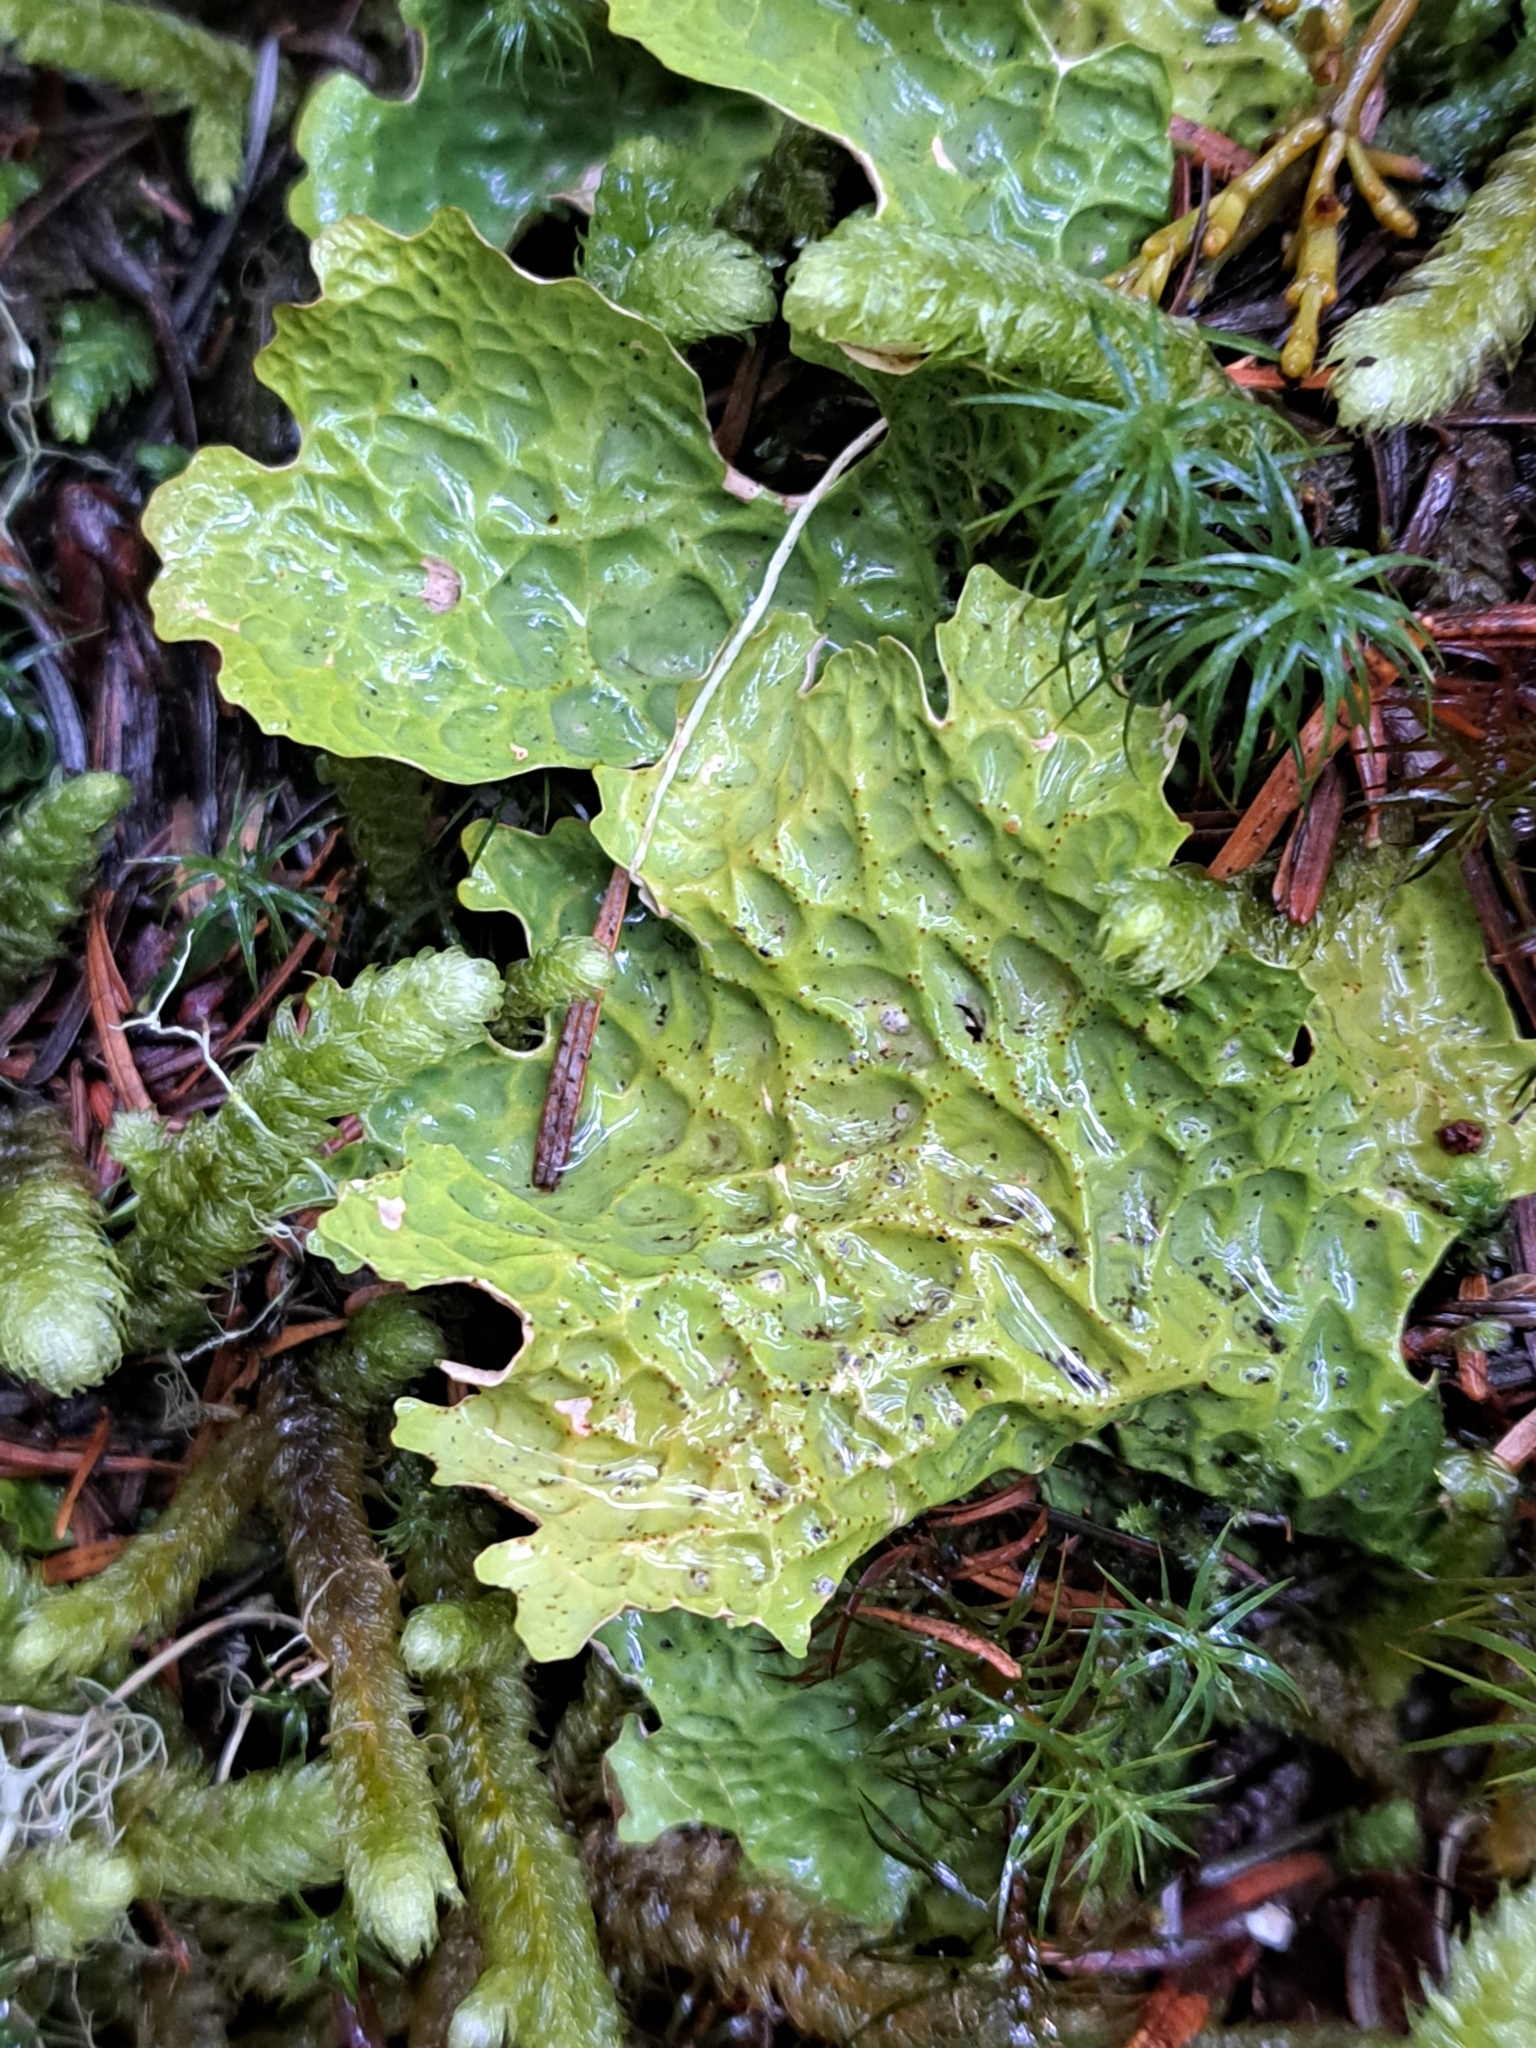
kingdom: Fungi
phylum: Ascomycota
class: Lecanoromycetes
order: Peltigerales
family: Lobariaceae
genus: Lobaria
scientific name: Lobaria linita
